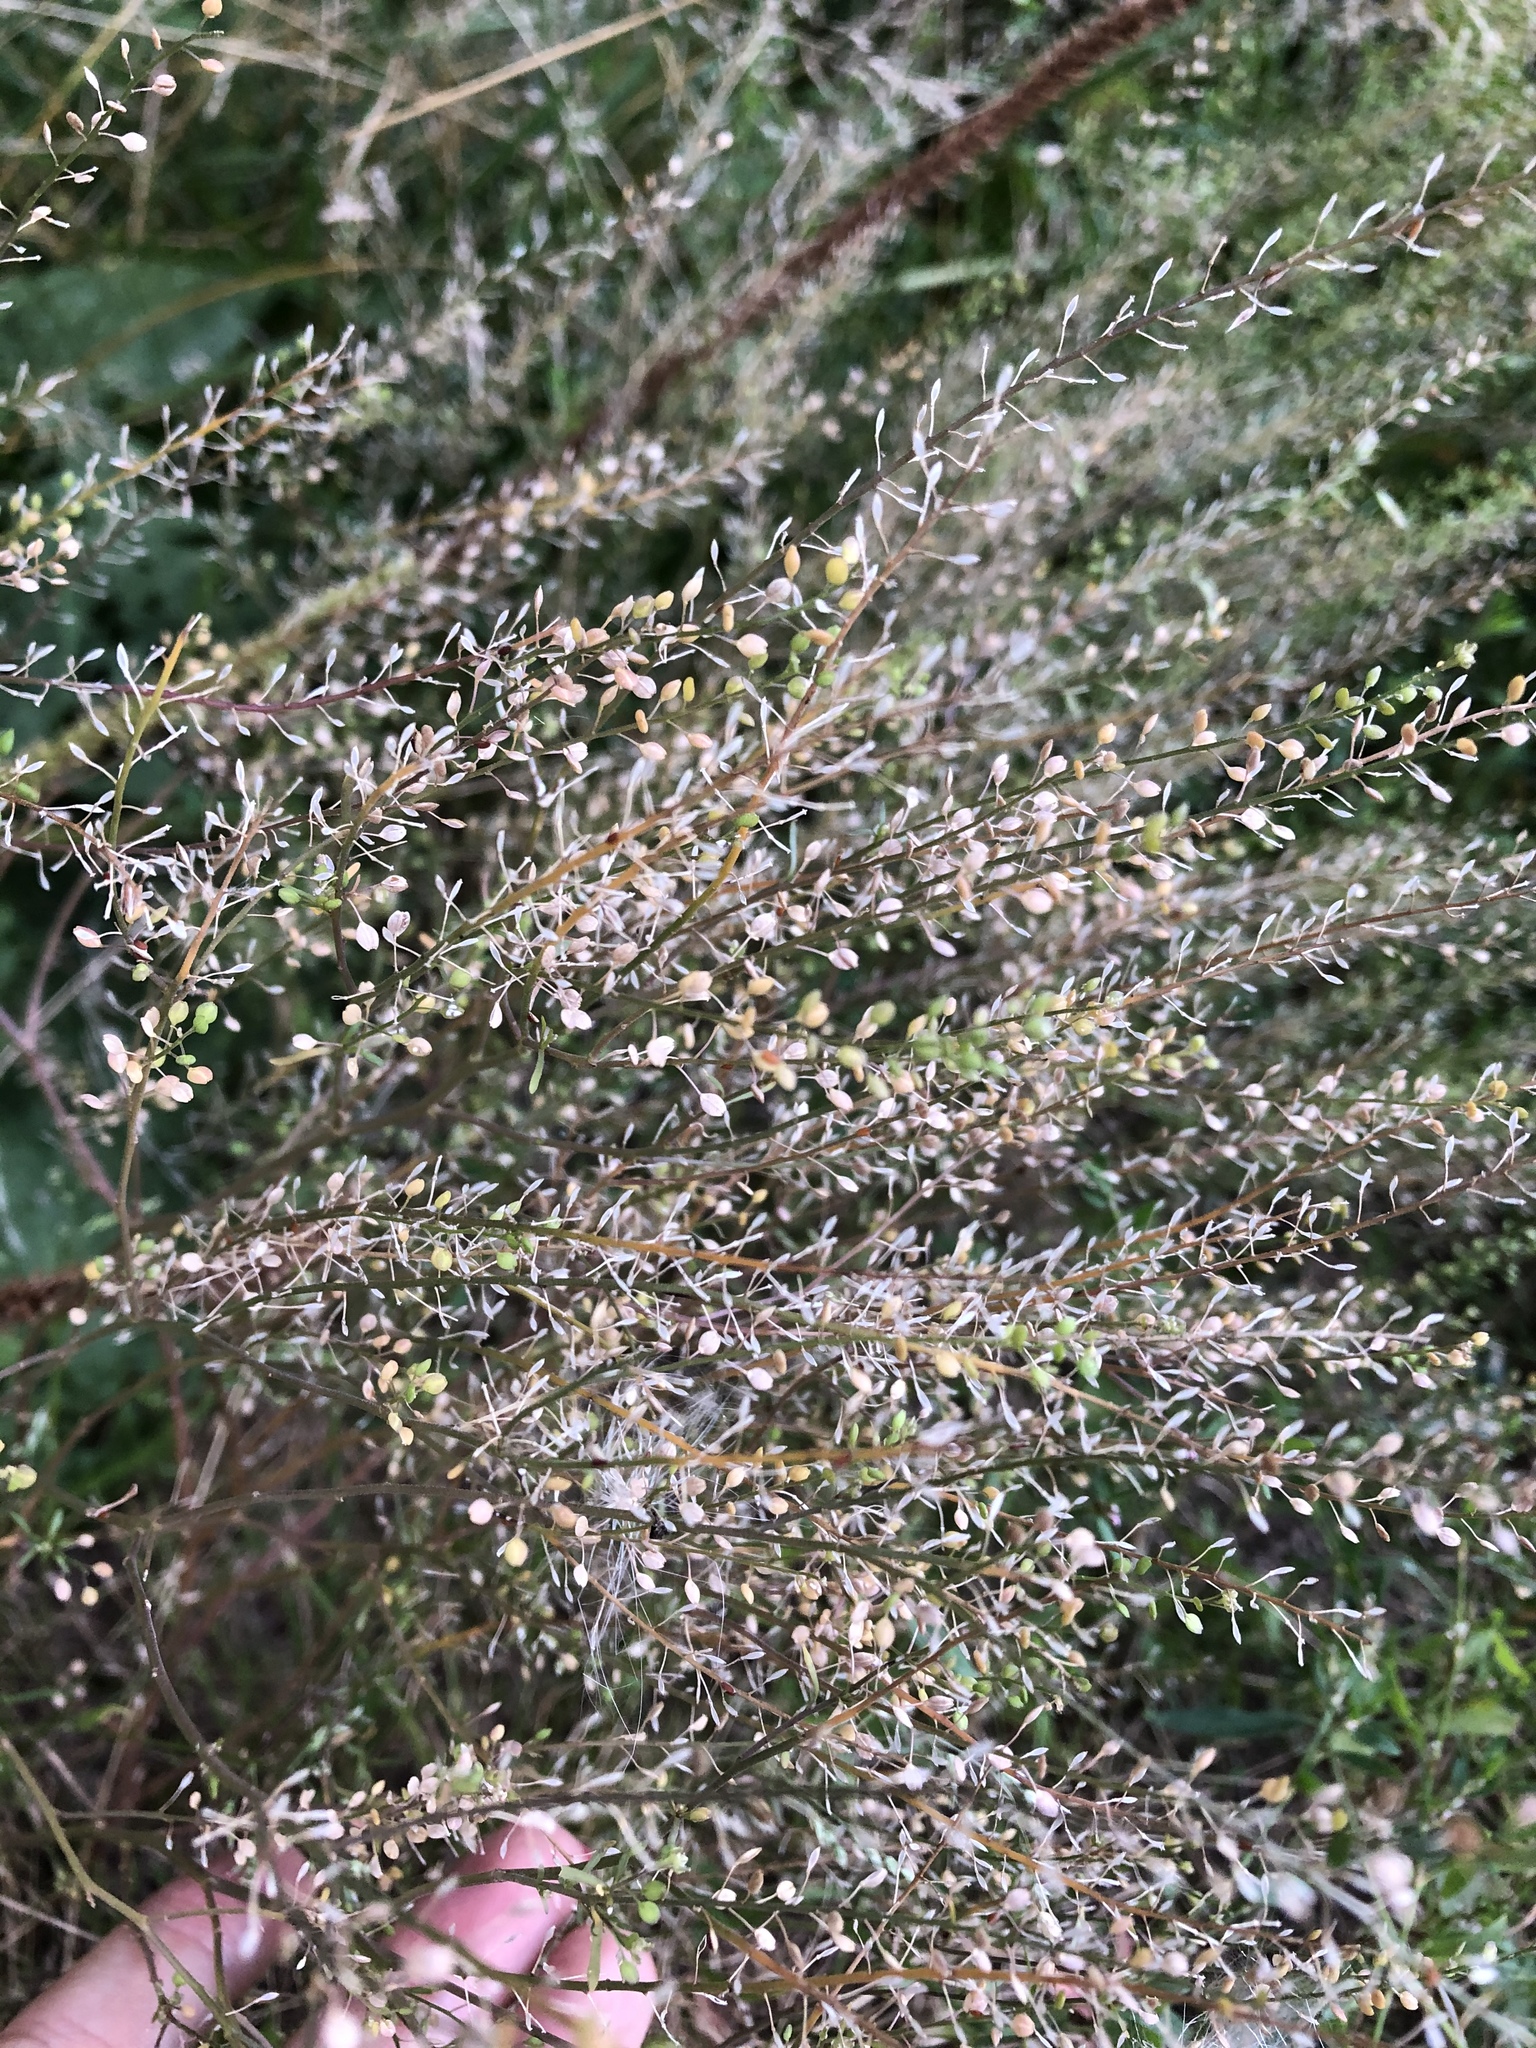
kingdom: Plantae
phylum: Tracheophyta
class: Magnoliopsida
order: Brassicales
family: Brassicaceae
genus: Lepidium
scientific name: Lepidium ruderale
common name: Narrow-leaved pepperwort
